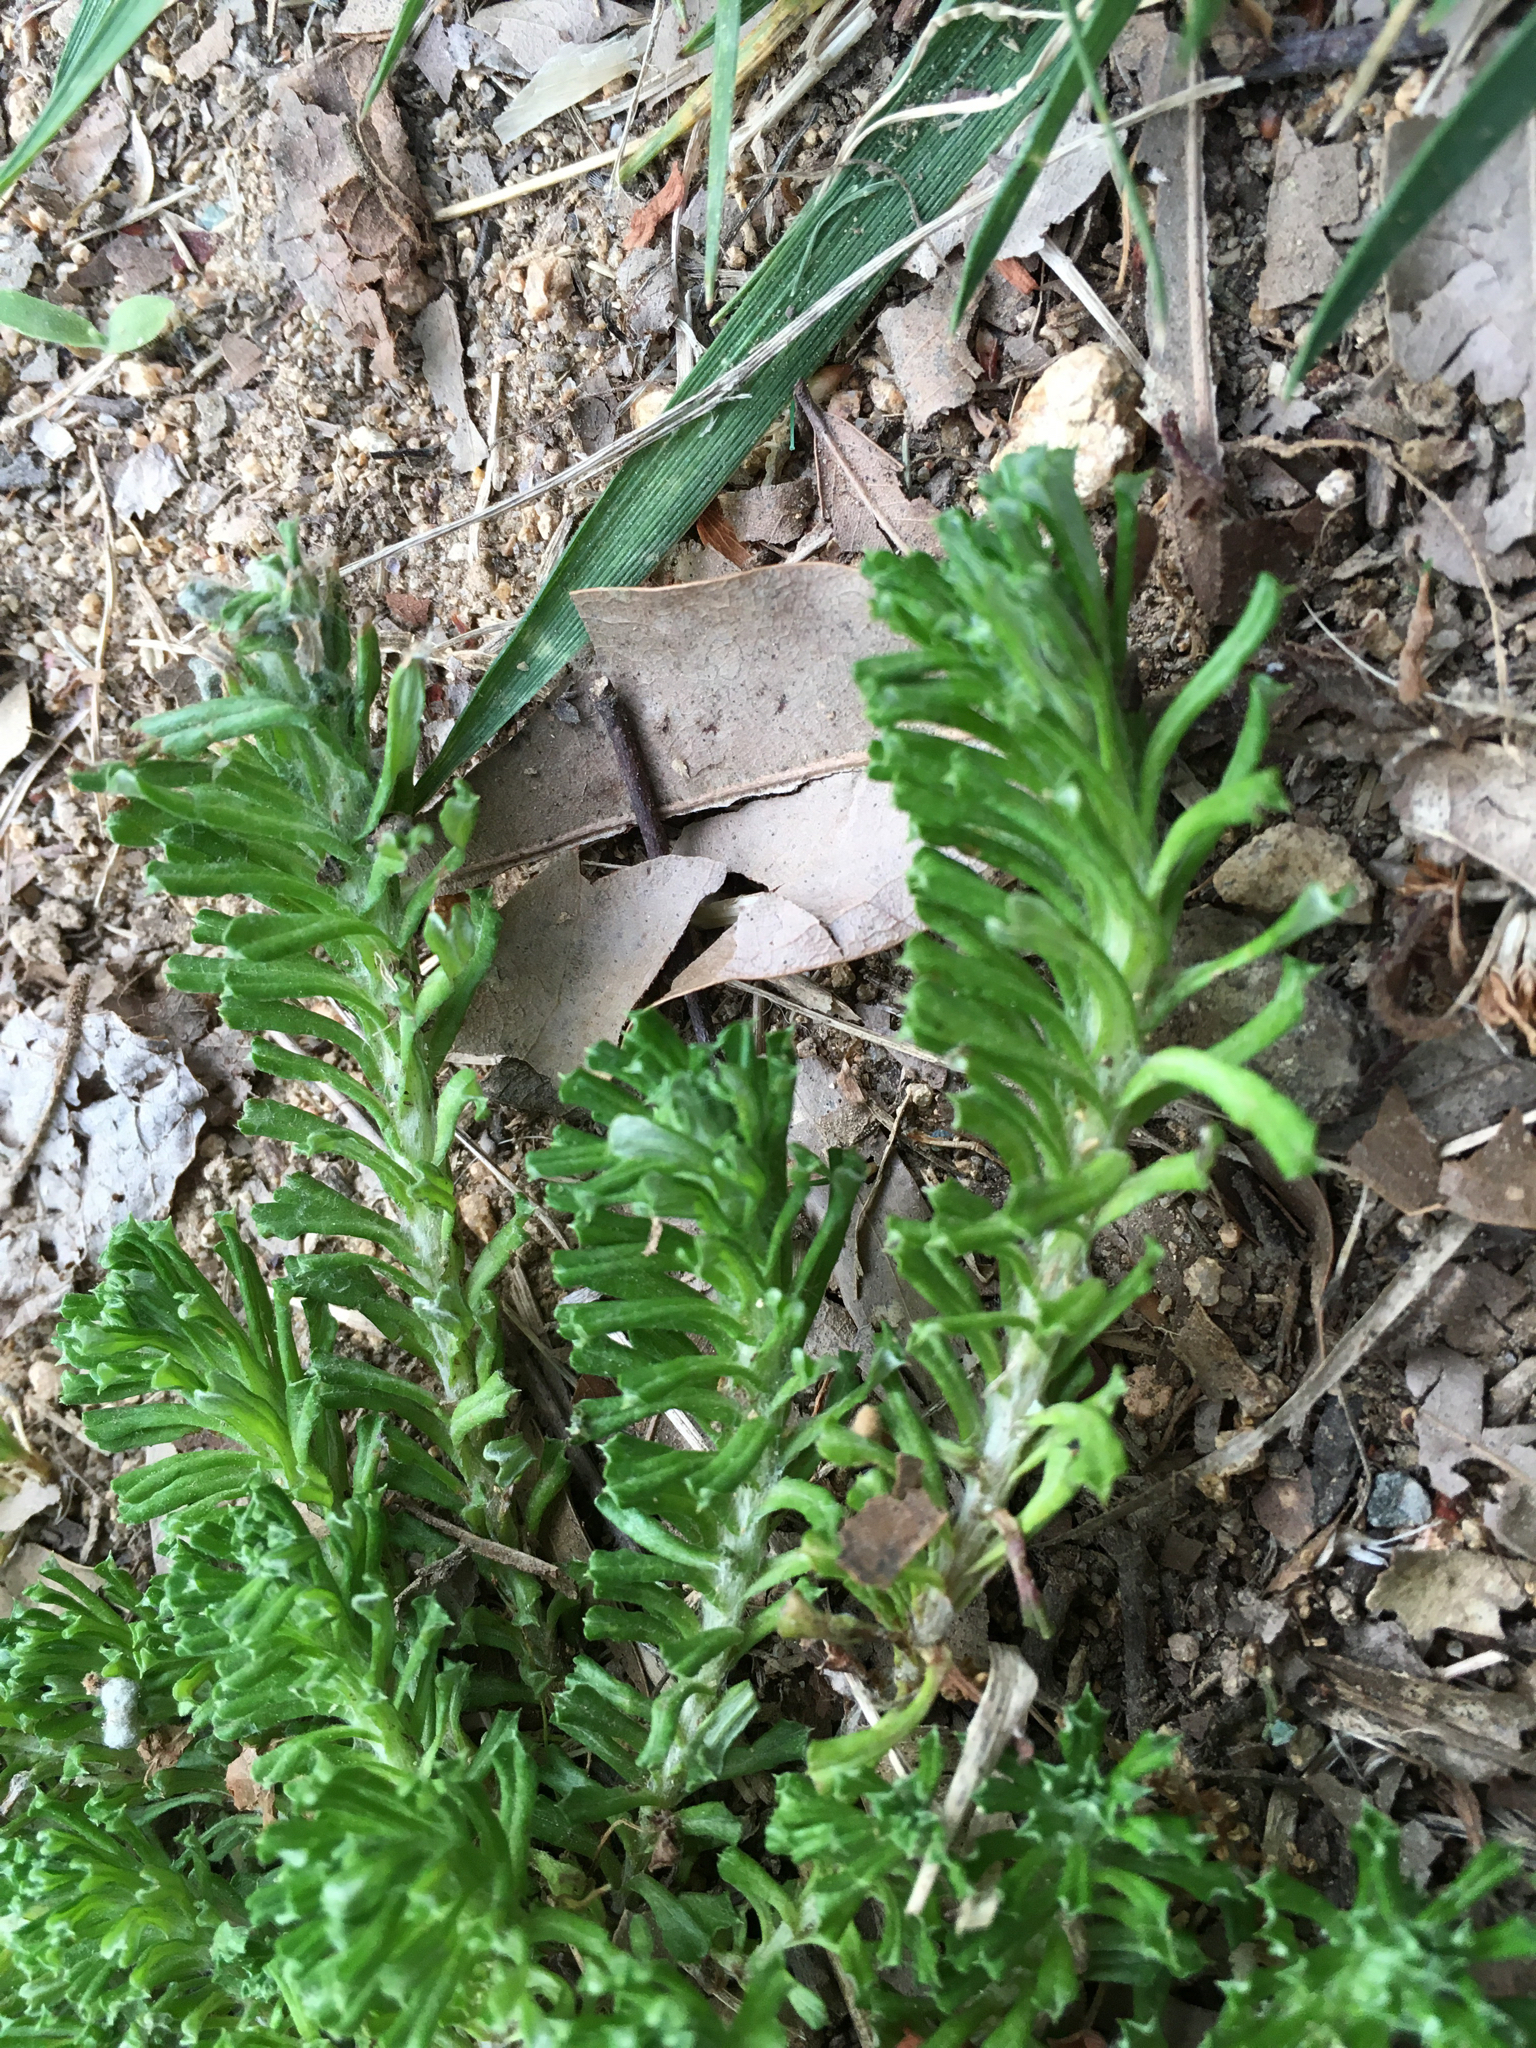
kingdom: Plantae
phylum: Tracheophyta
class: Magnoliopsida
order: Asterales
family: Asteraceae
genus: Facelis
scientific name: Facelis retusa
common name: Annual trampweed
